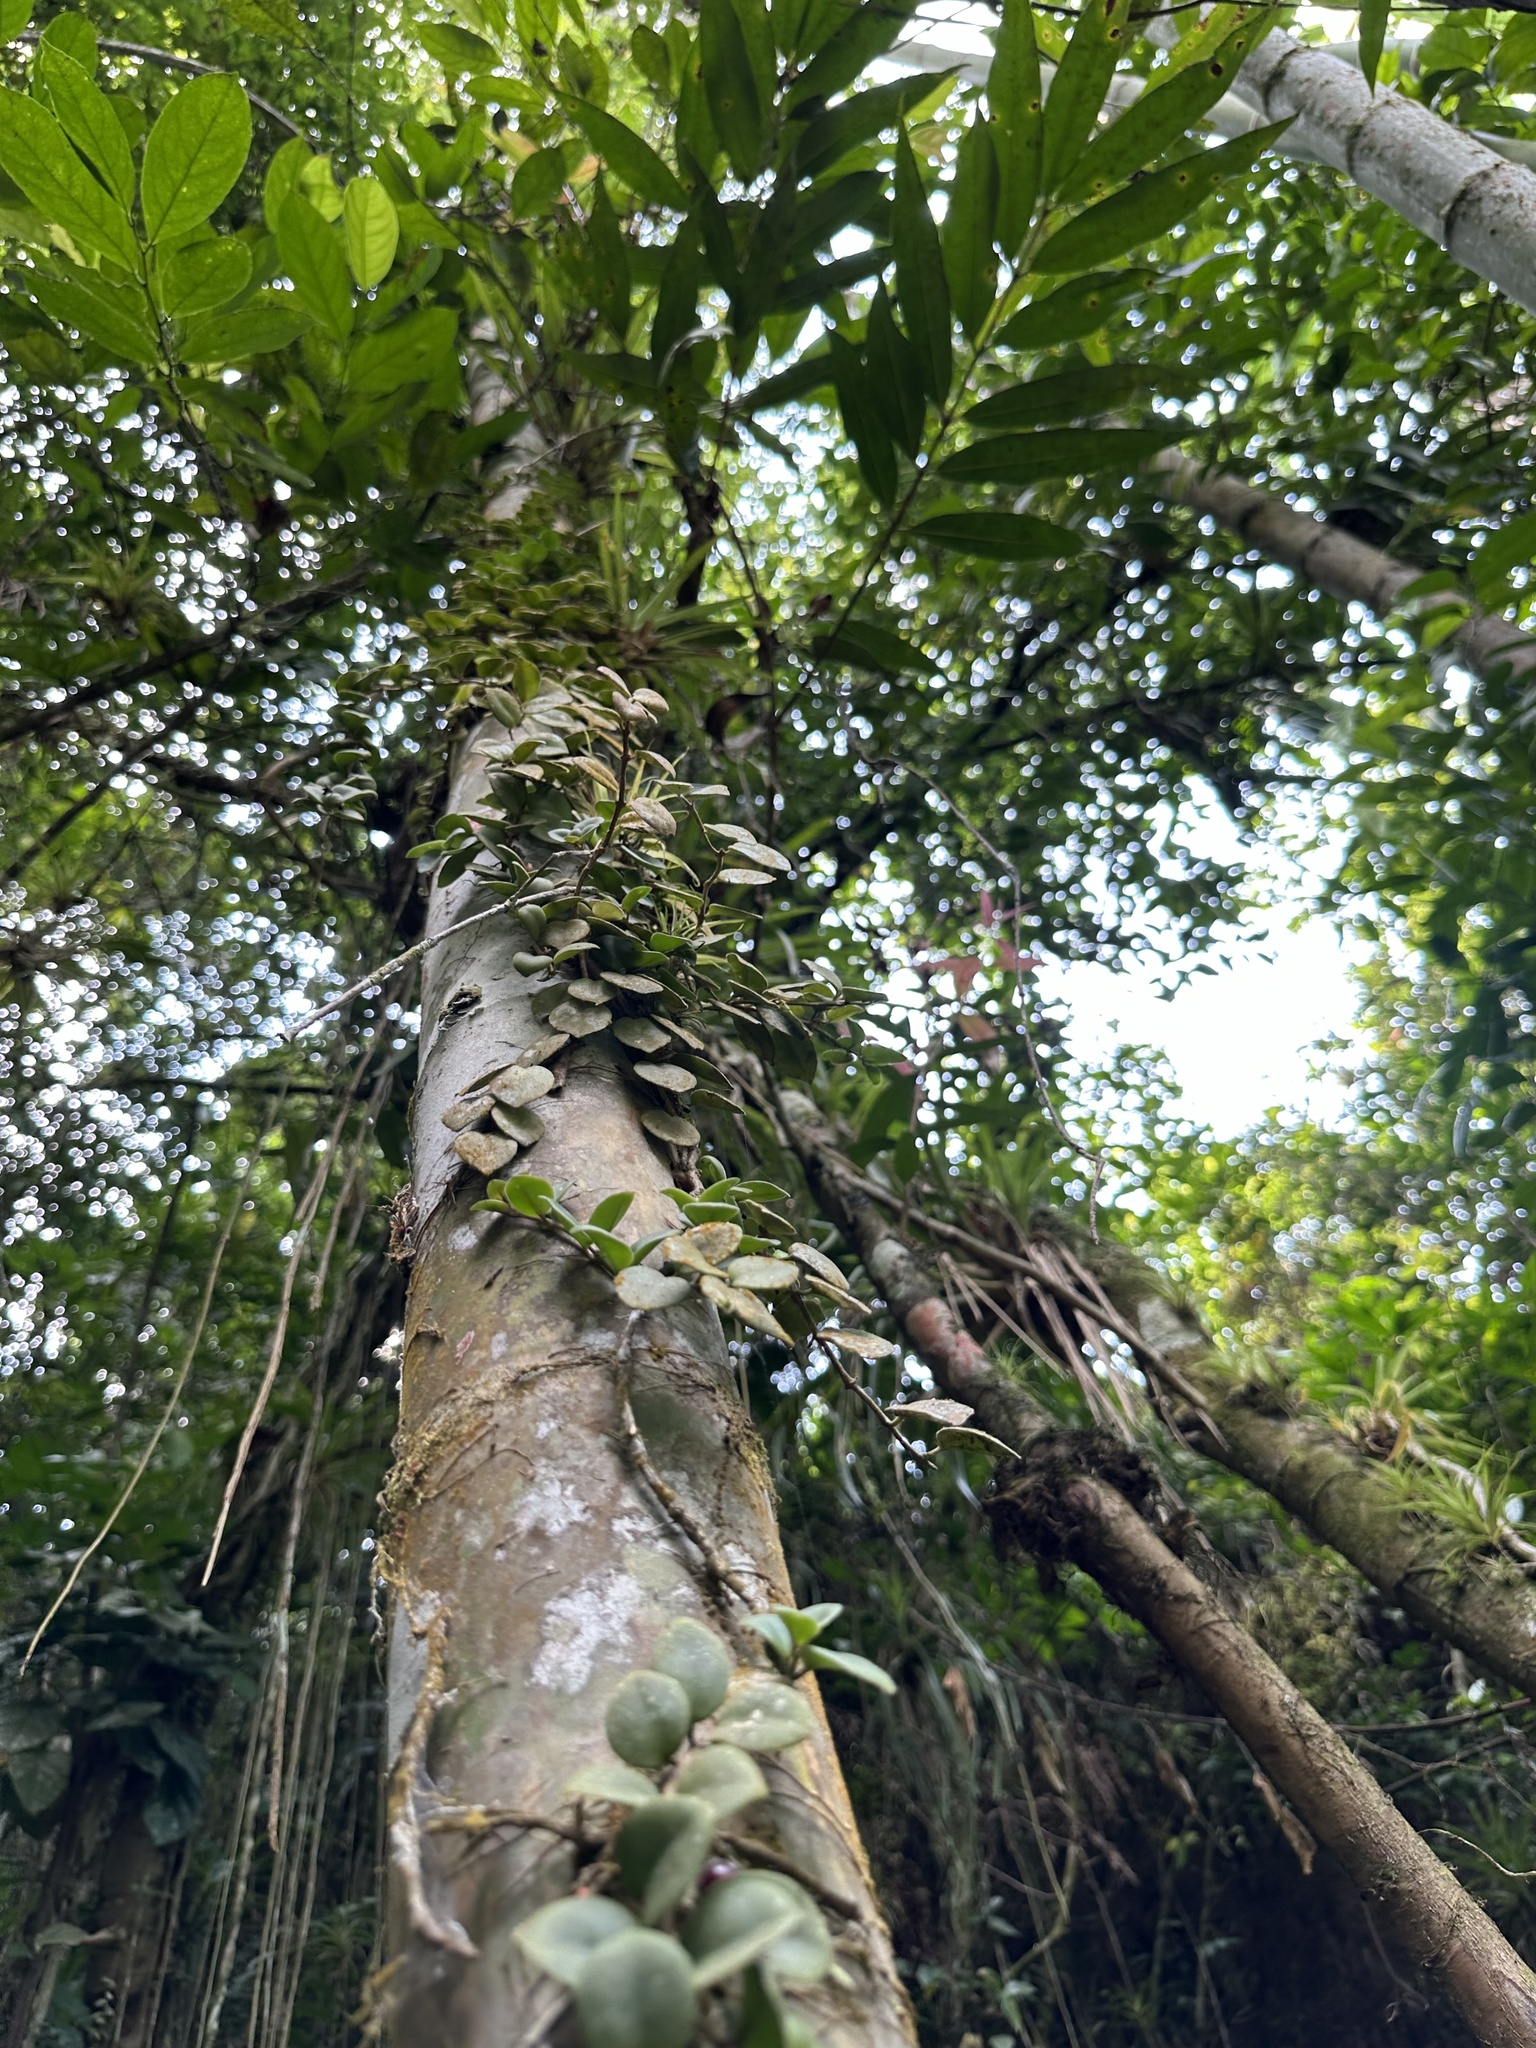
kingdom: Plantae
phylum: Tracheophyta
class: Magnoliopsida
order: Lamiales
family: Gesneriaceae
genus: Codonanthopsis
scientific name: Codonanthopsis crassifolia
